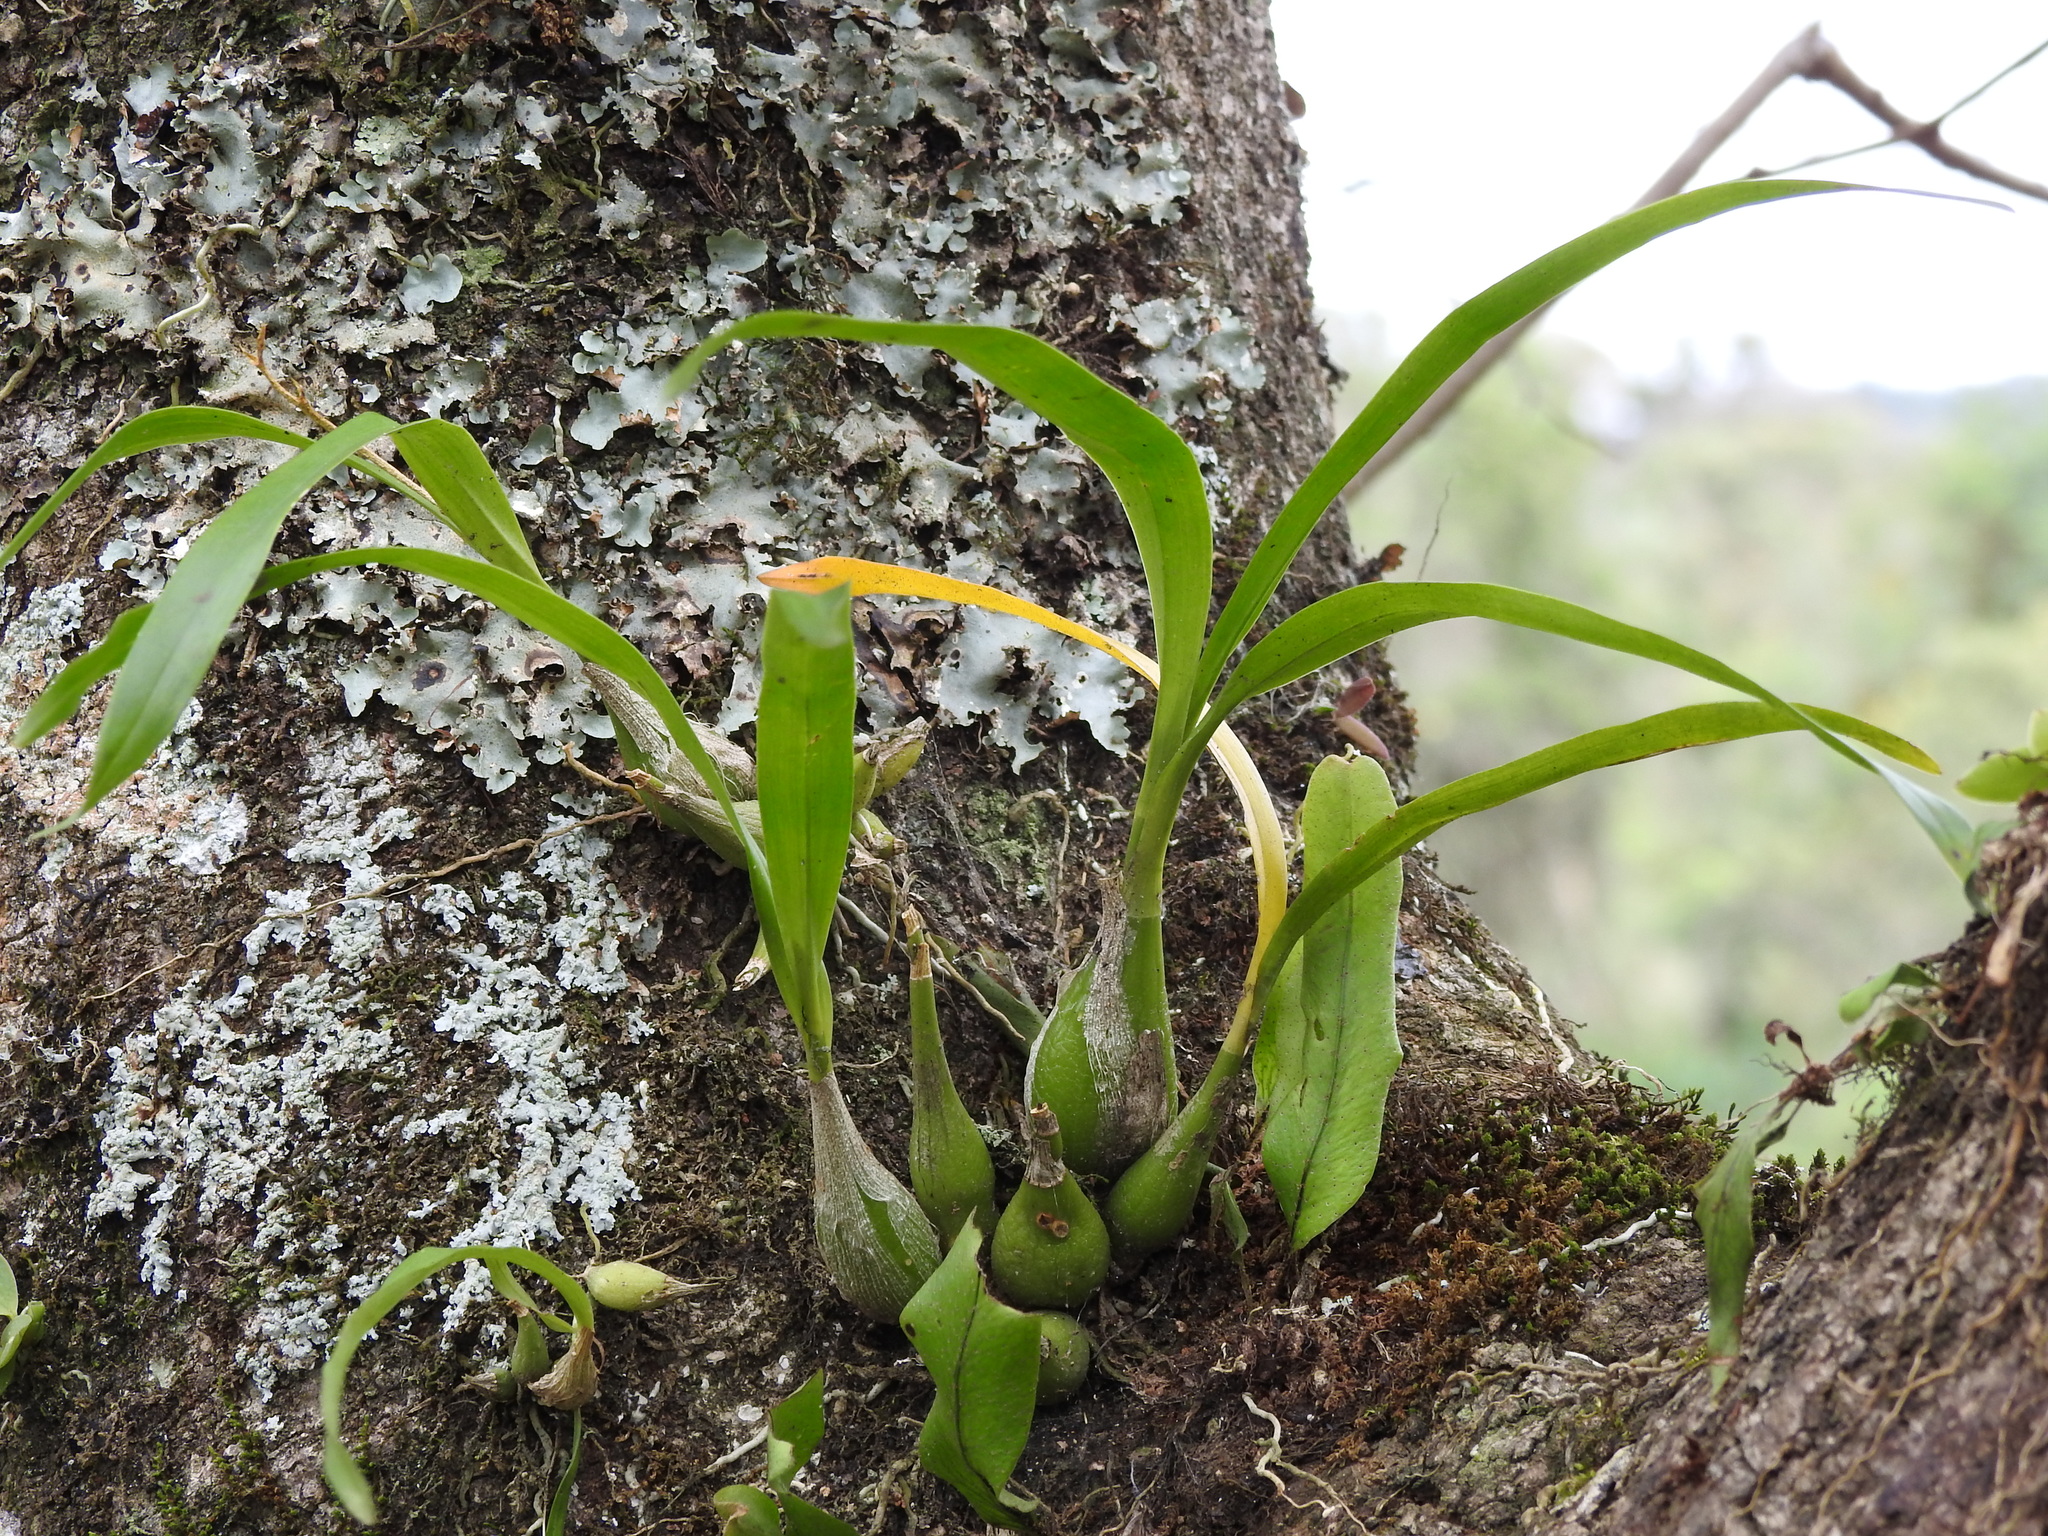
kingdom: Plantae
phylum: Tracheophyta
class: Liliopsida
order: Asparagales
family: Orchidaceae
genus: Prosthechea
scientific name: Prosthechea ochracea
